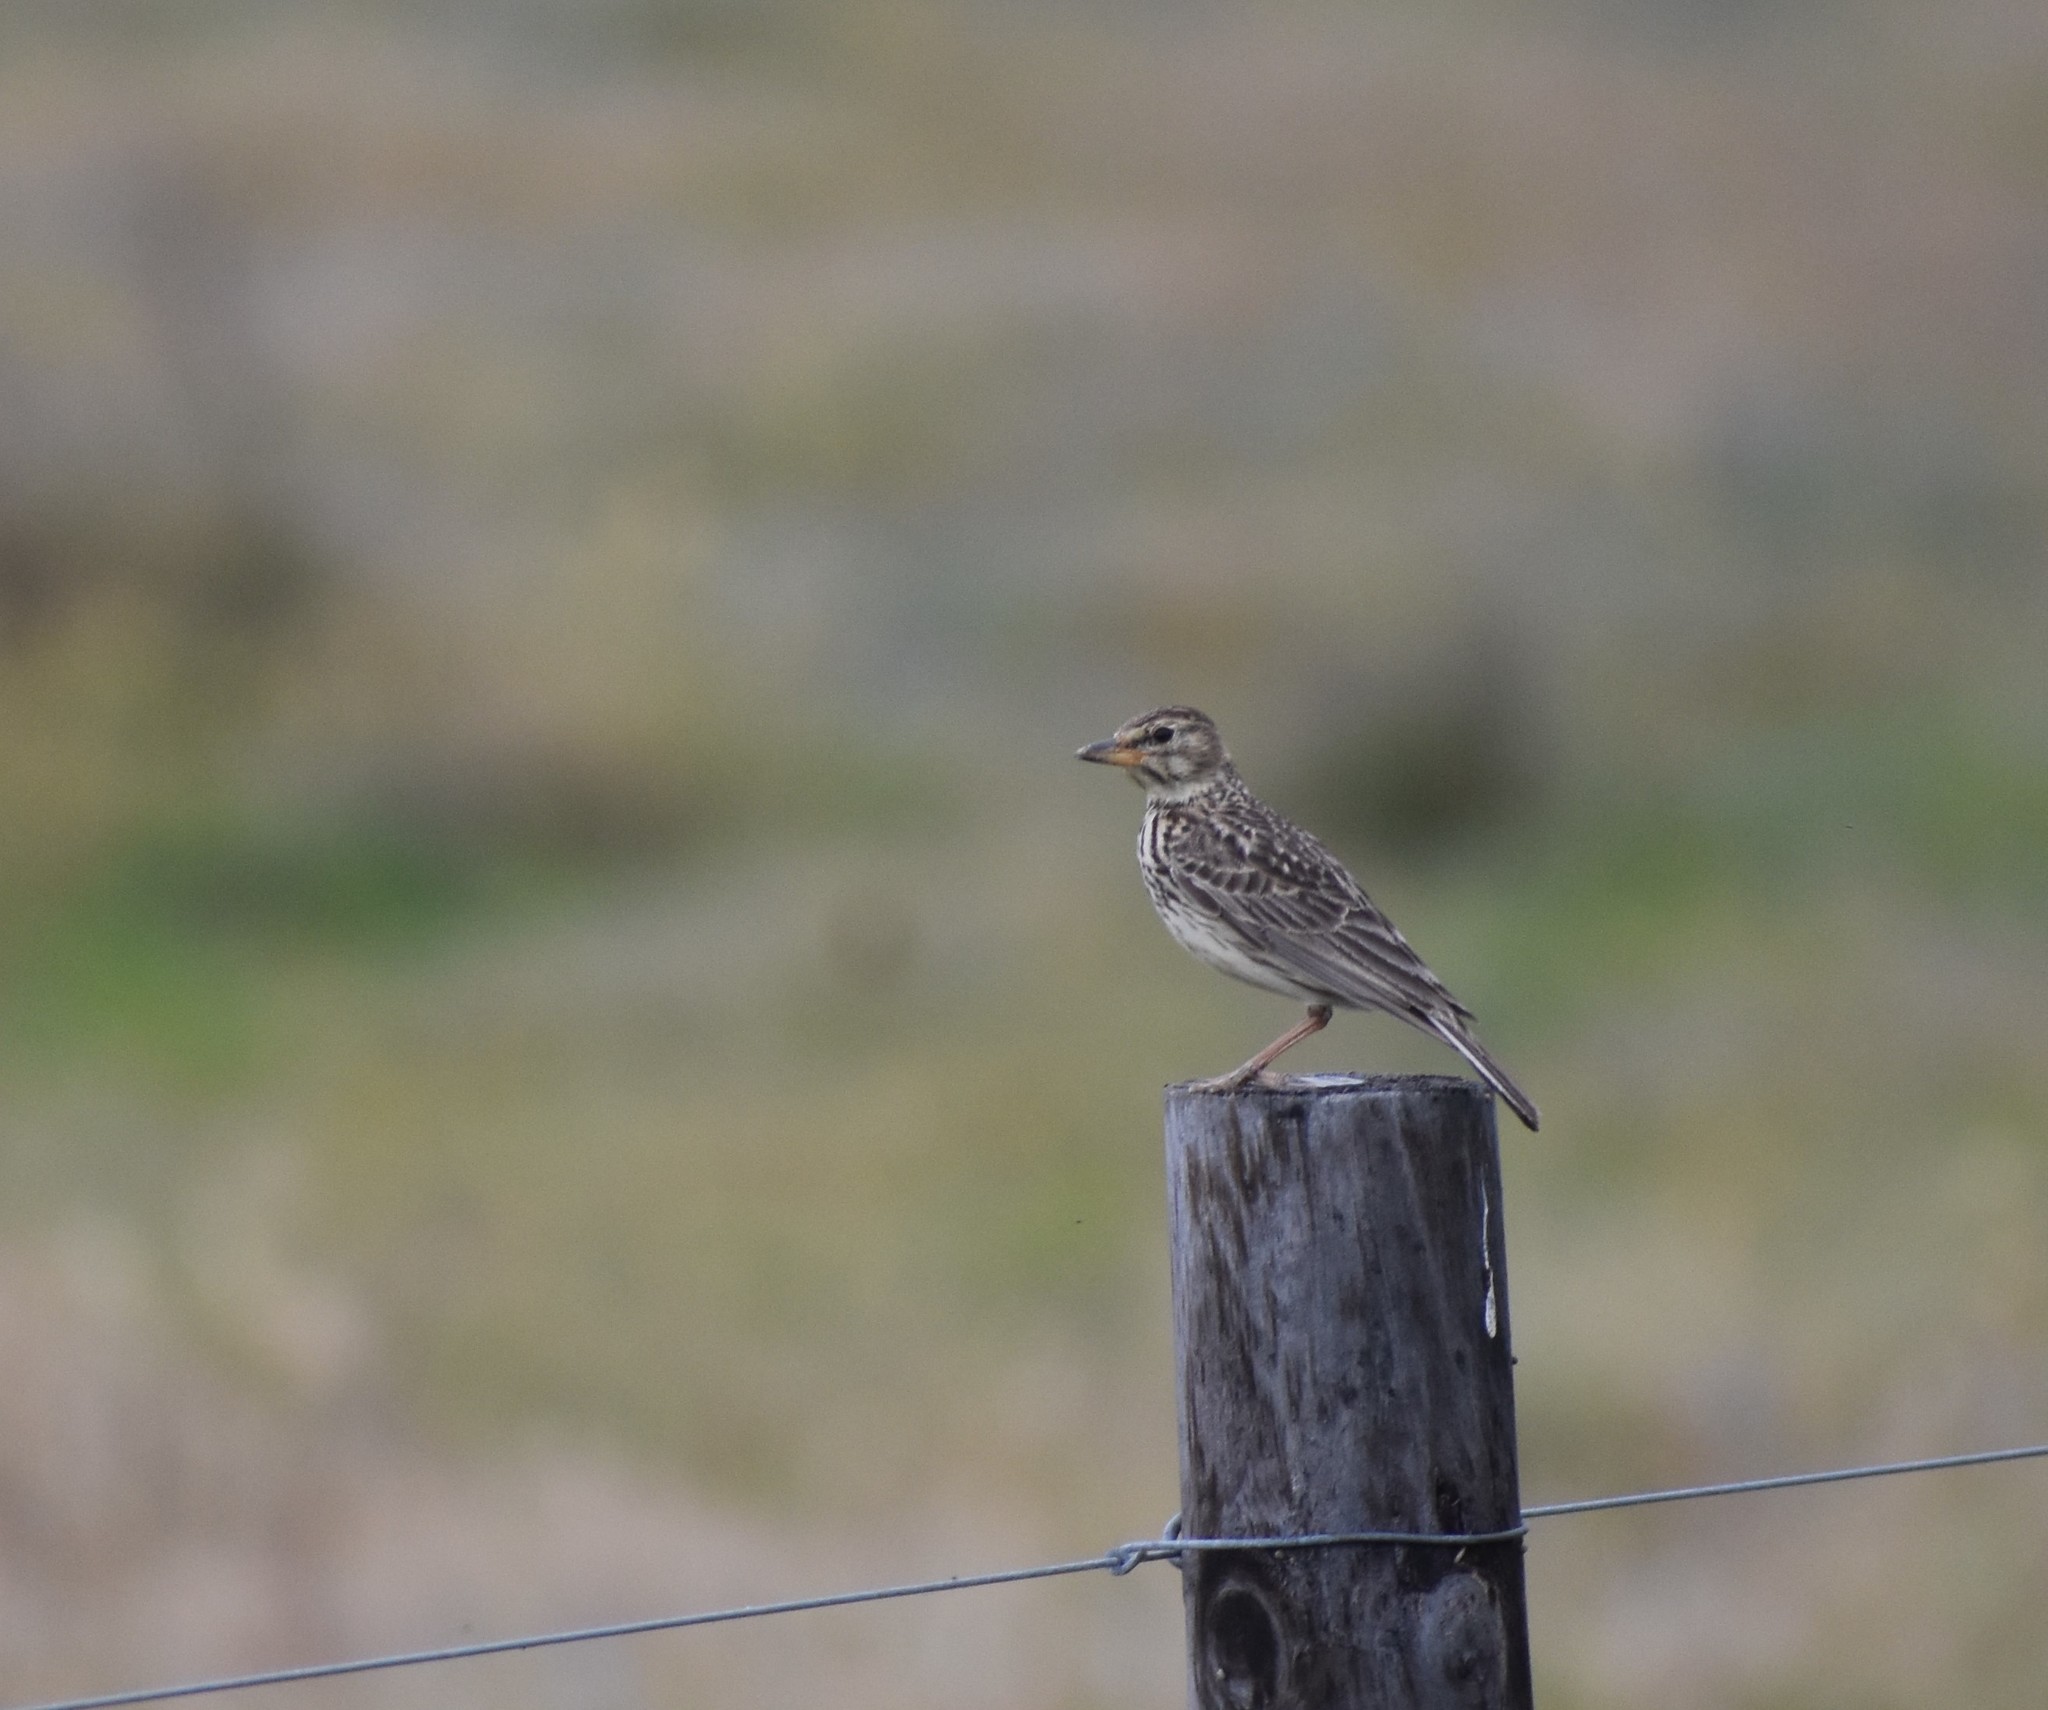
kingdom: Animalia
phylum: Chordata
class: Aves
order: Passeriformes
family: Alaudidae
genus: Galerida
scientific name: Galerida magnirostris
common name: Large-billed lark
